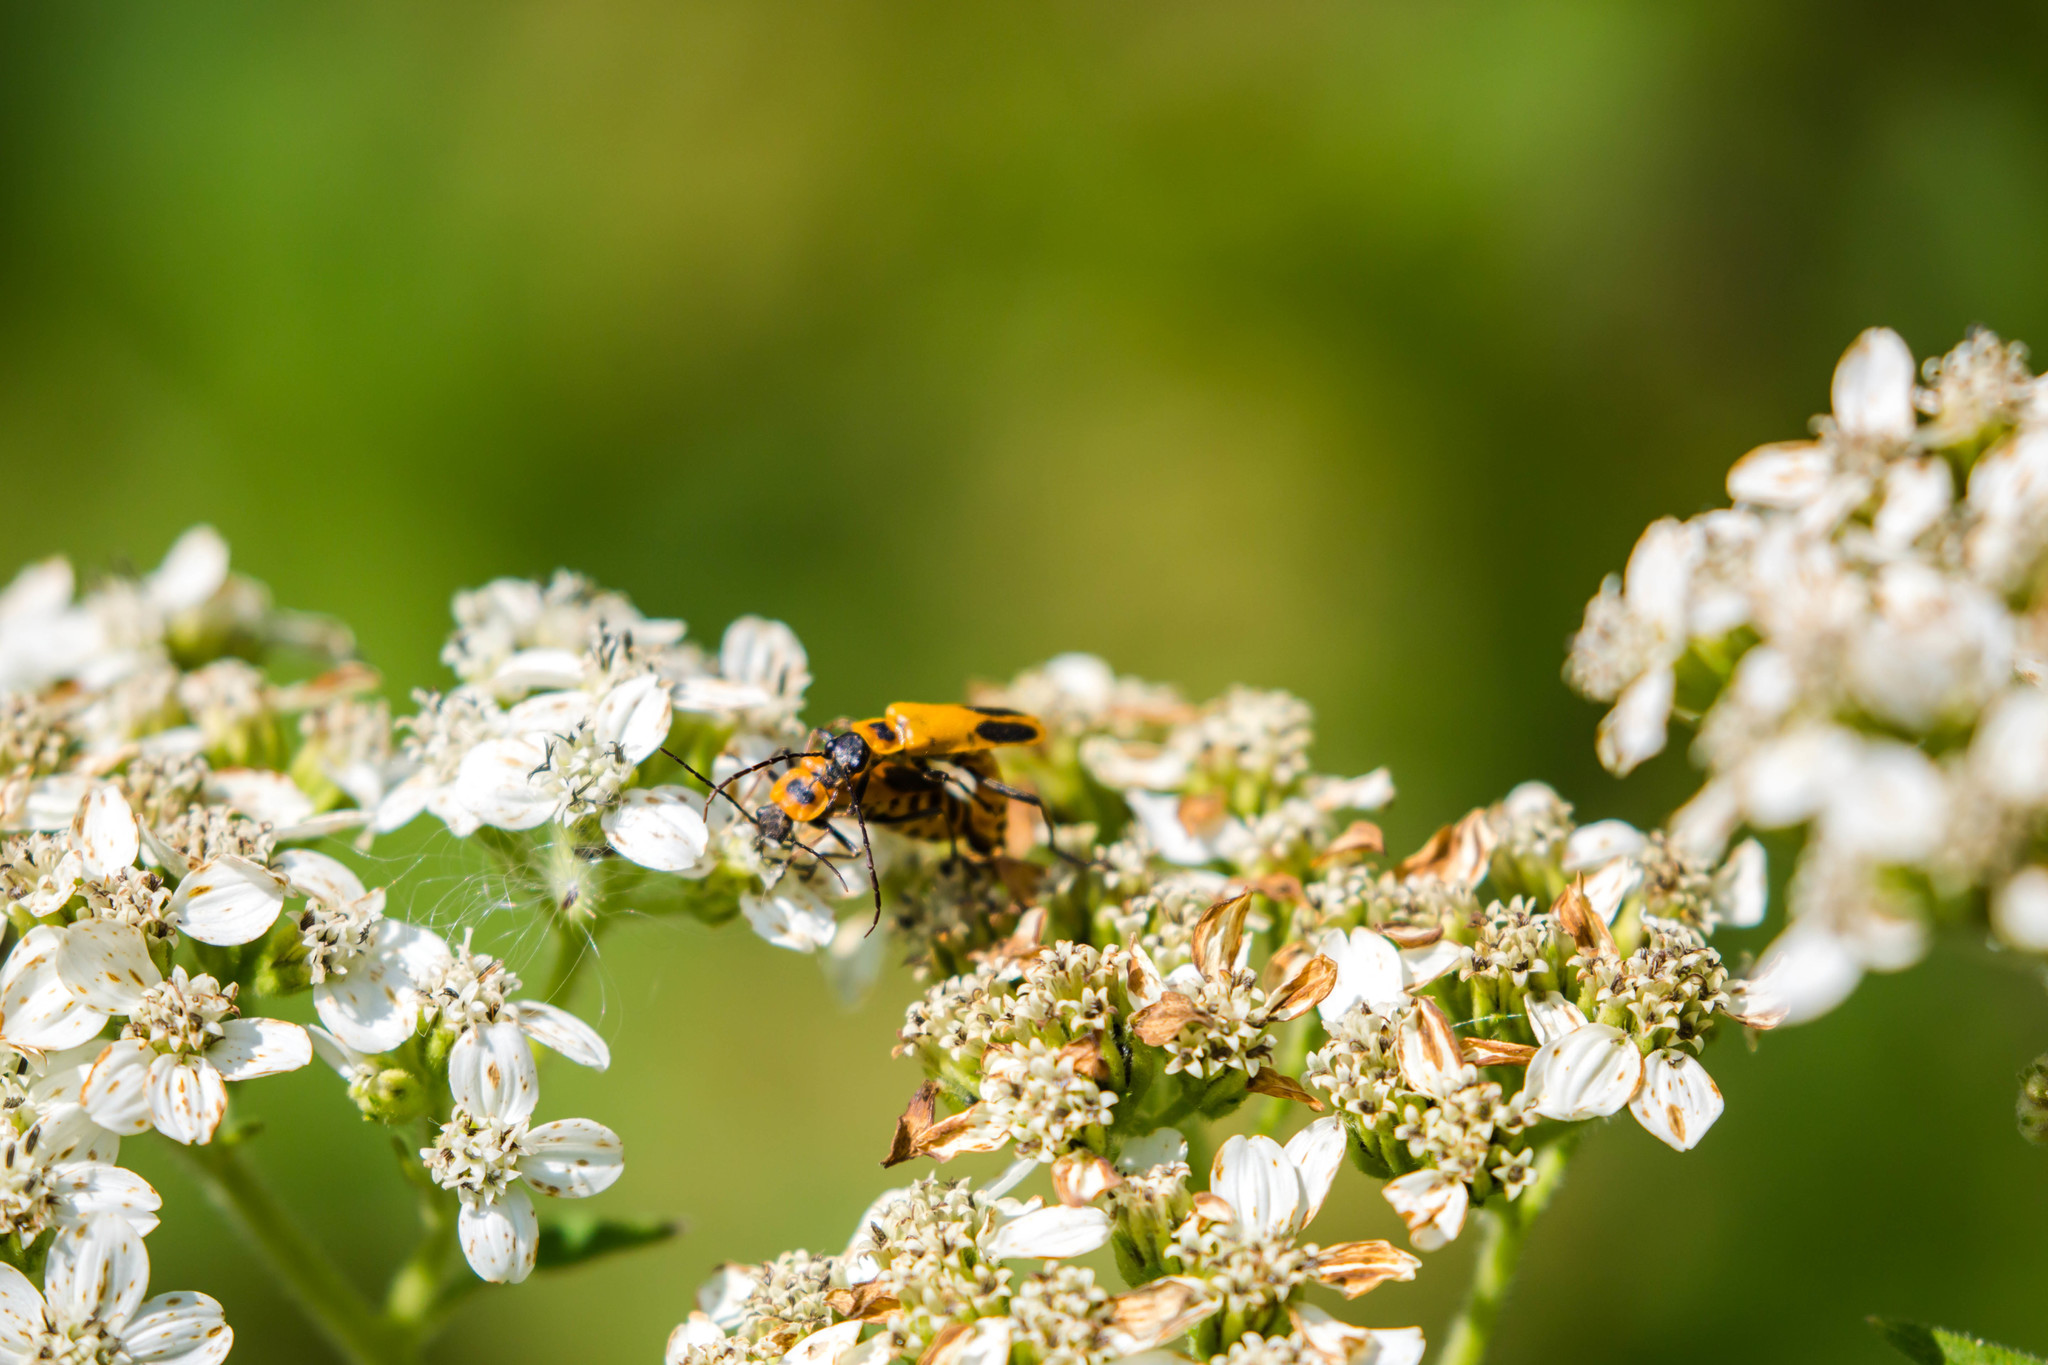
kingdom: Animalia
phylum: Arthropoda
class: Insecta
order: Coleoptera
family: Cantharidae
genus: Chauliognathus
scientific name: Chauliognathus pensylvanicus
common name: Goldenrod soldier beetle
